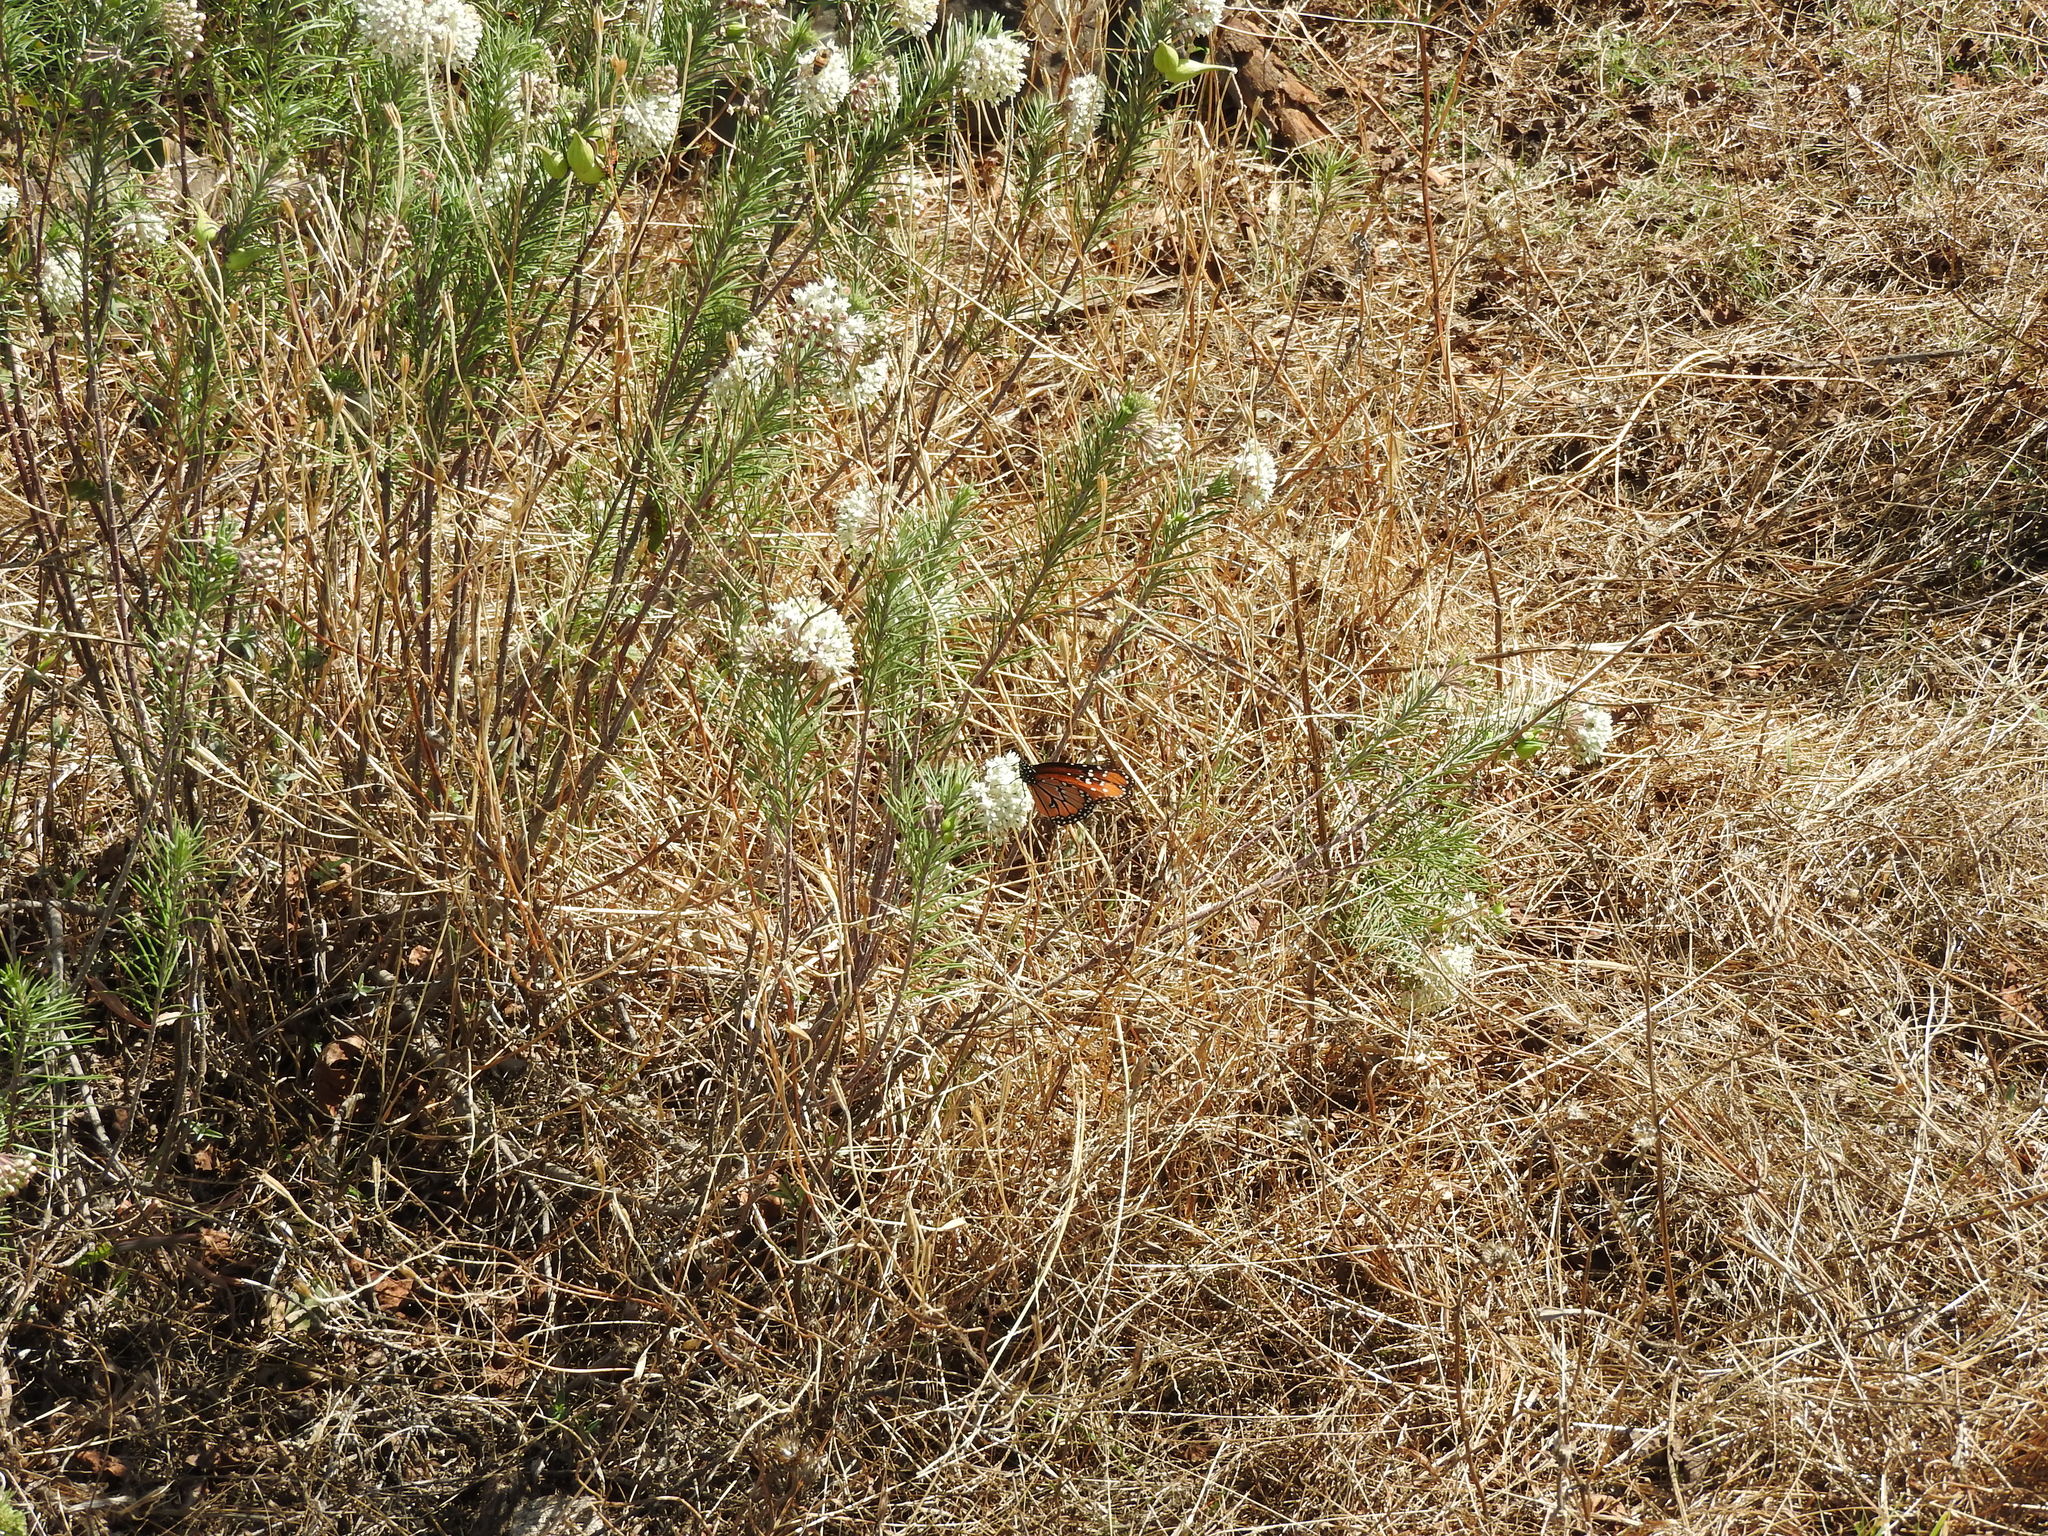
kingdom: Animalia
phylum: Arthropoda
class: Insecta
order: Lepidoptera
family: Nymphalidae
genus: Danaus
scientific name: Danaus gilippus
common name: Queen
